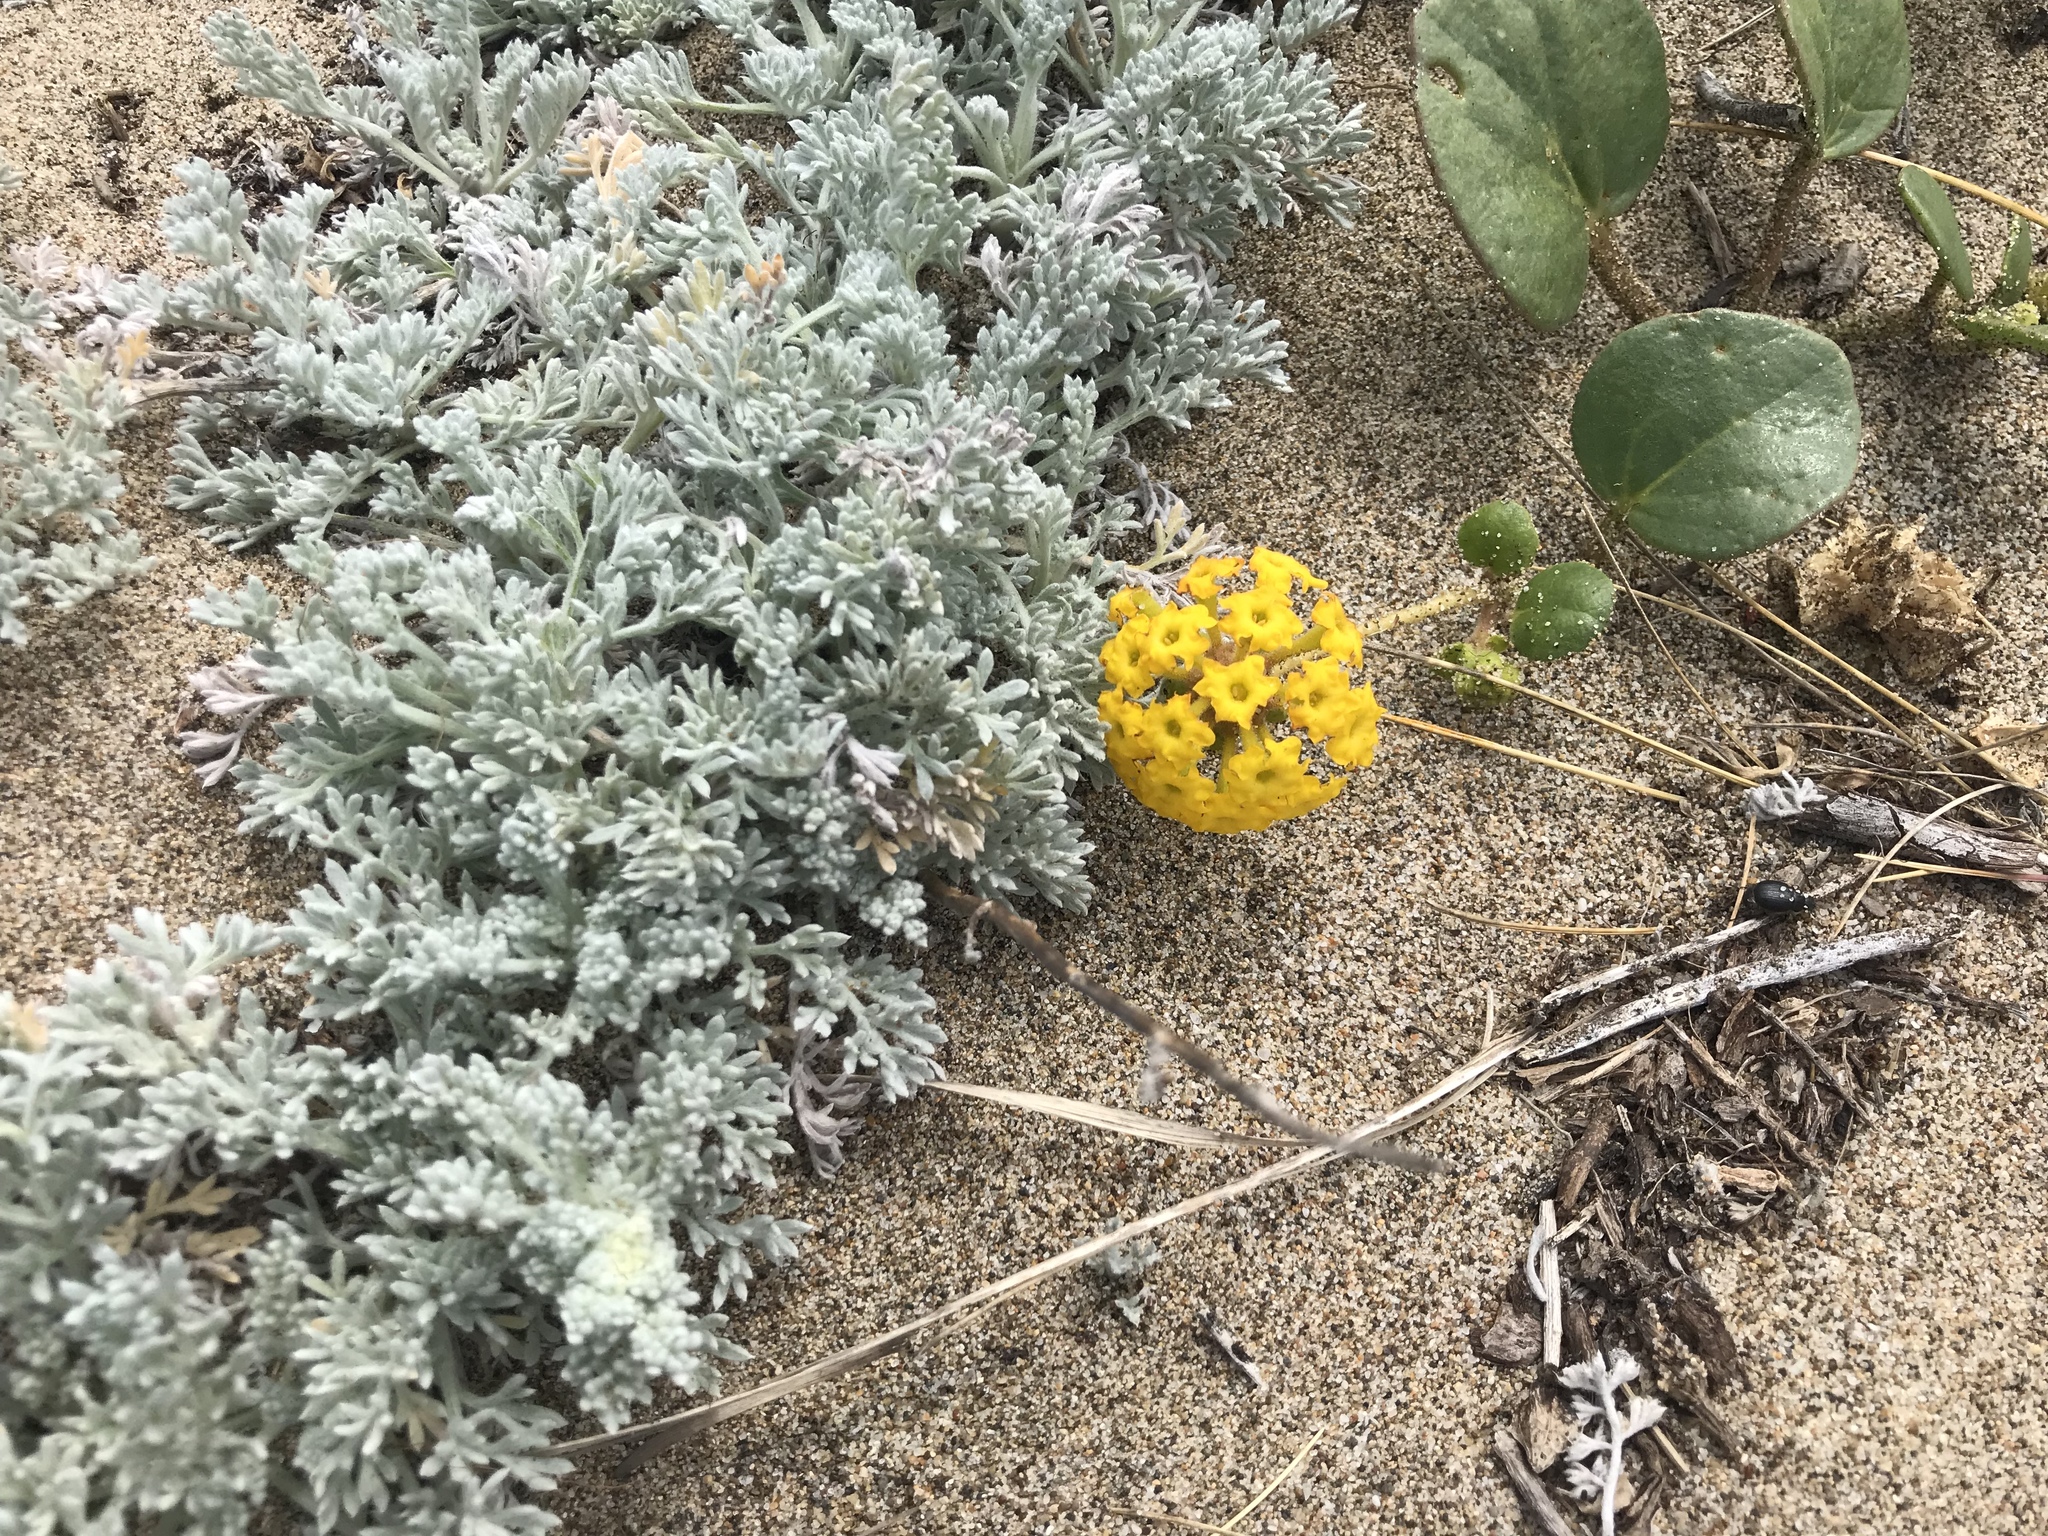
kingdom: Plantae
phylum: Tracheophyta
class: Magnoliopsida
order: Caryophyllales
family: Nyctaginaceae
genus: Abronia
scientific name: Abronia latifolia
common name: Yellow sand-verbena
